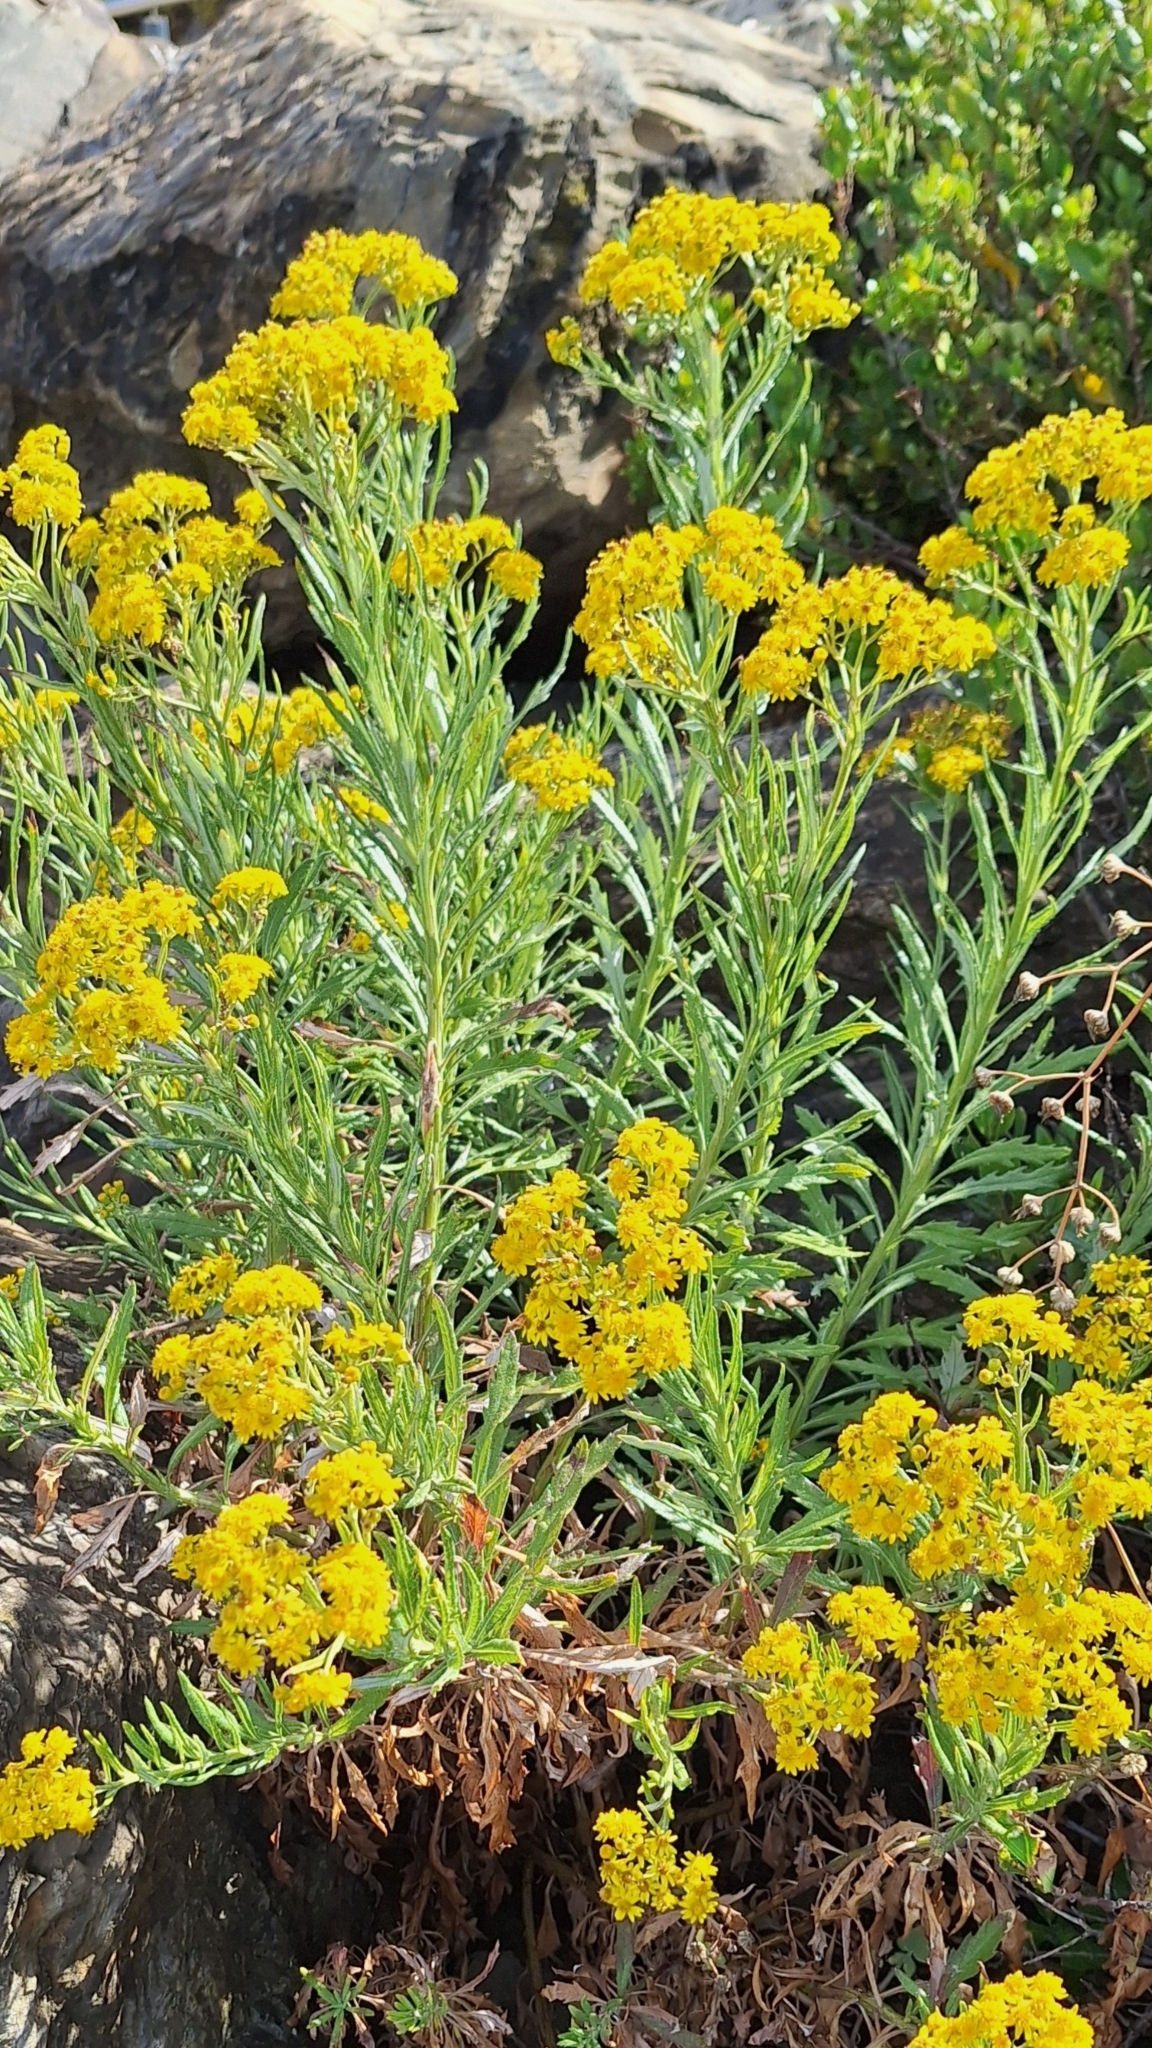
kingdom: Plantae
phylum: Tracheophyta
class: Magnoliopsida
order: Asterales
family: Asteraceae
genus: Senecio
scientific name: Senecio pterophorus
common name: Shoddy ragwort
